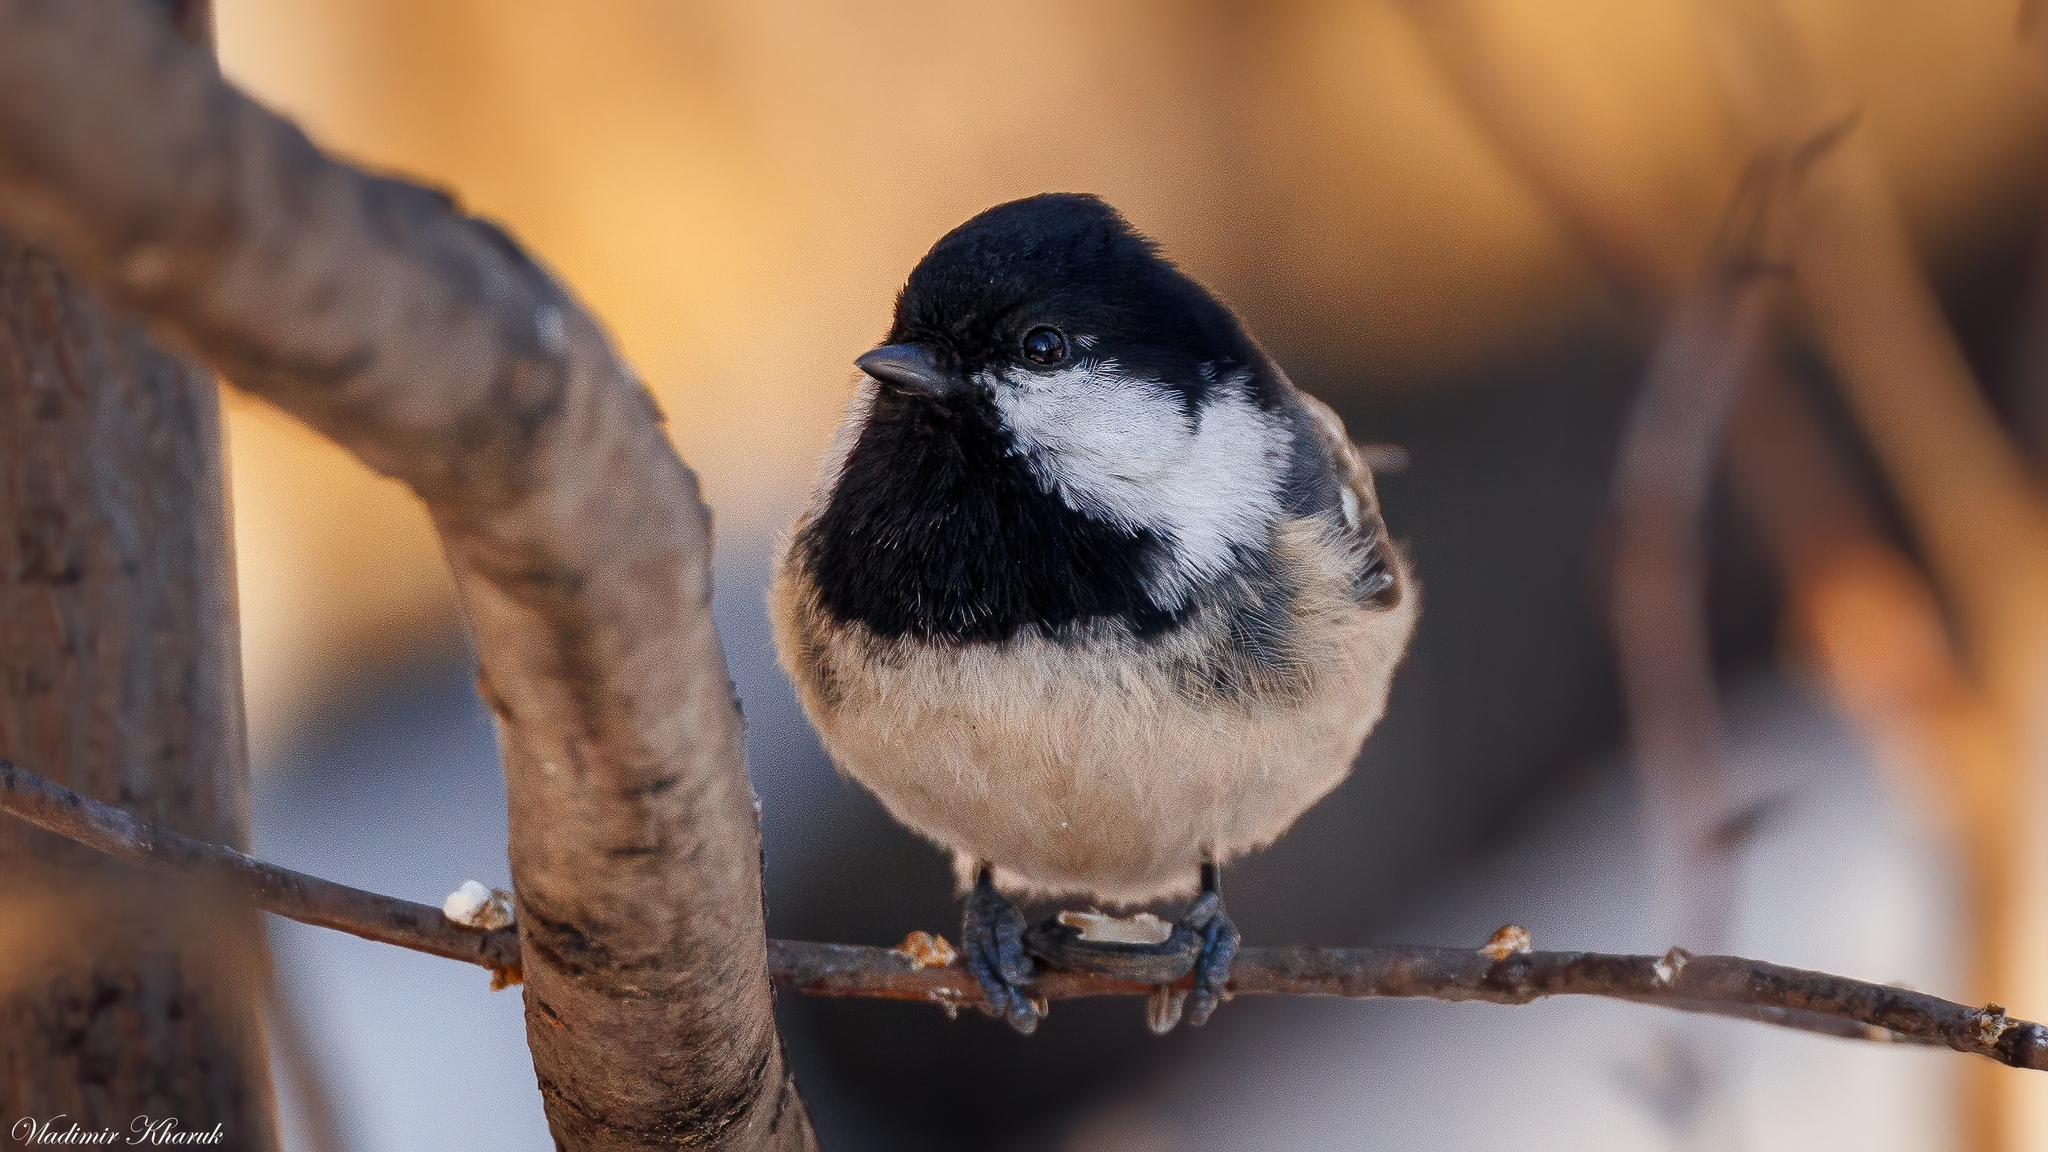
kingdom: Animalia
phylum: Chordata
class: Aves
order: Passeriformes
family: Paridae
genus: Periparus
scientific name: Periparus ater
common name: Coal tit
